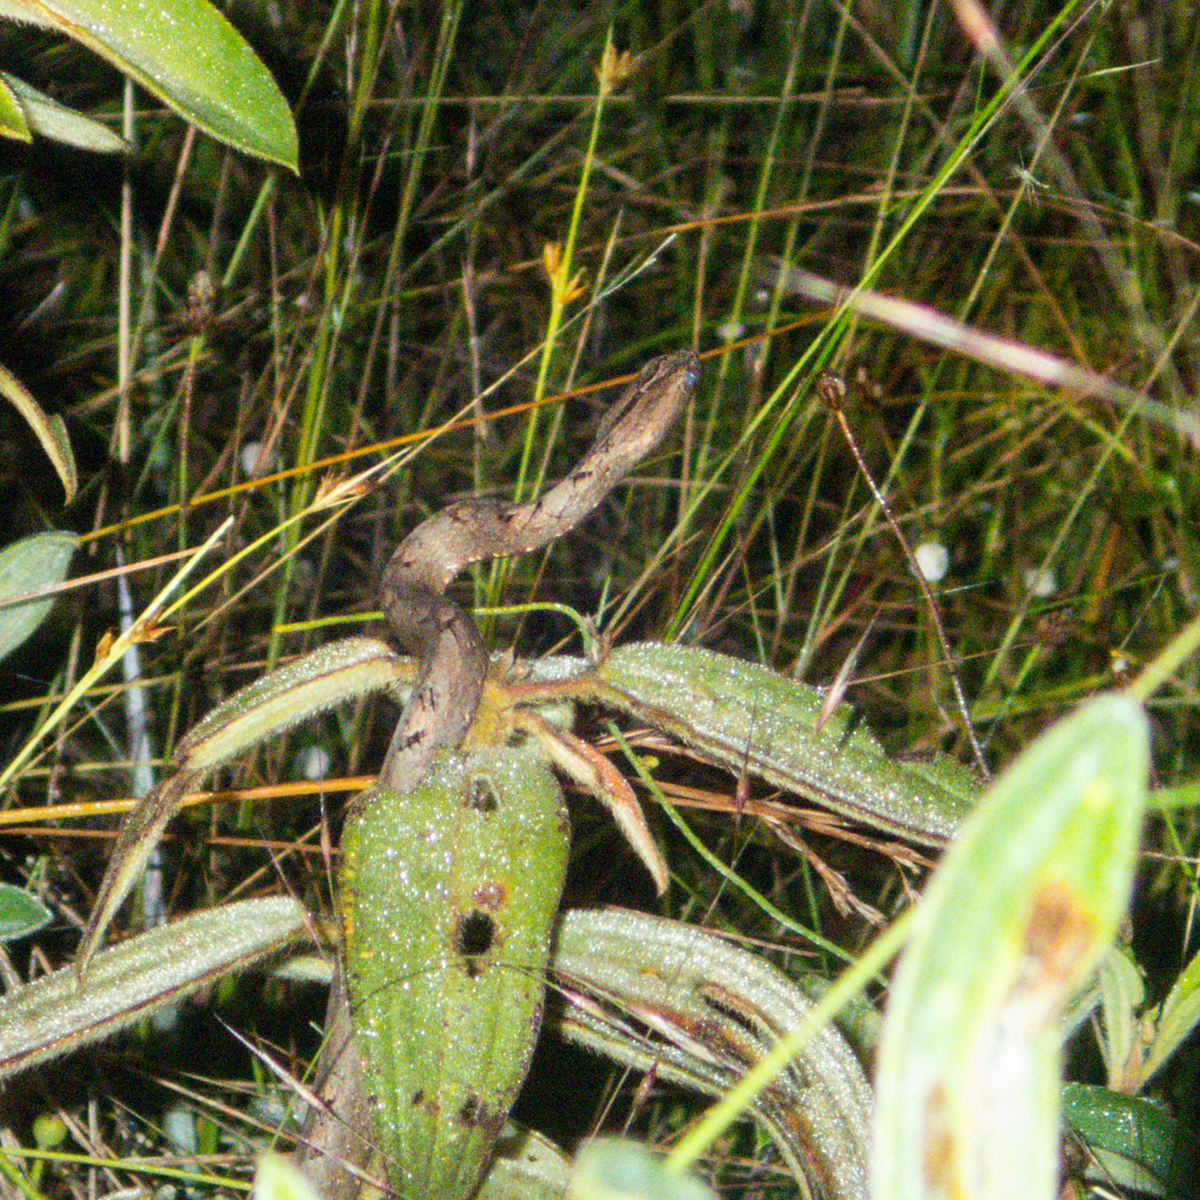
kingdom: Animalia
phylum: Chordata
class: Squamata
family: Pseudaspididae
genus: Psammodynastes
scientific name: Psammodynastes pulverulentus
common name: Common mock viper
